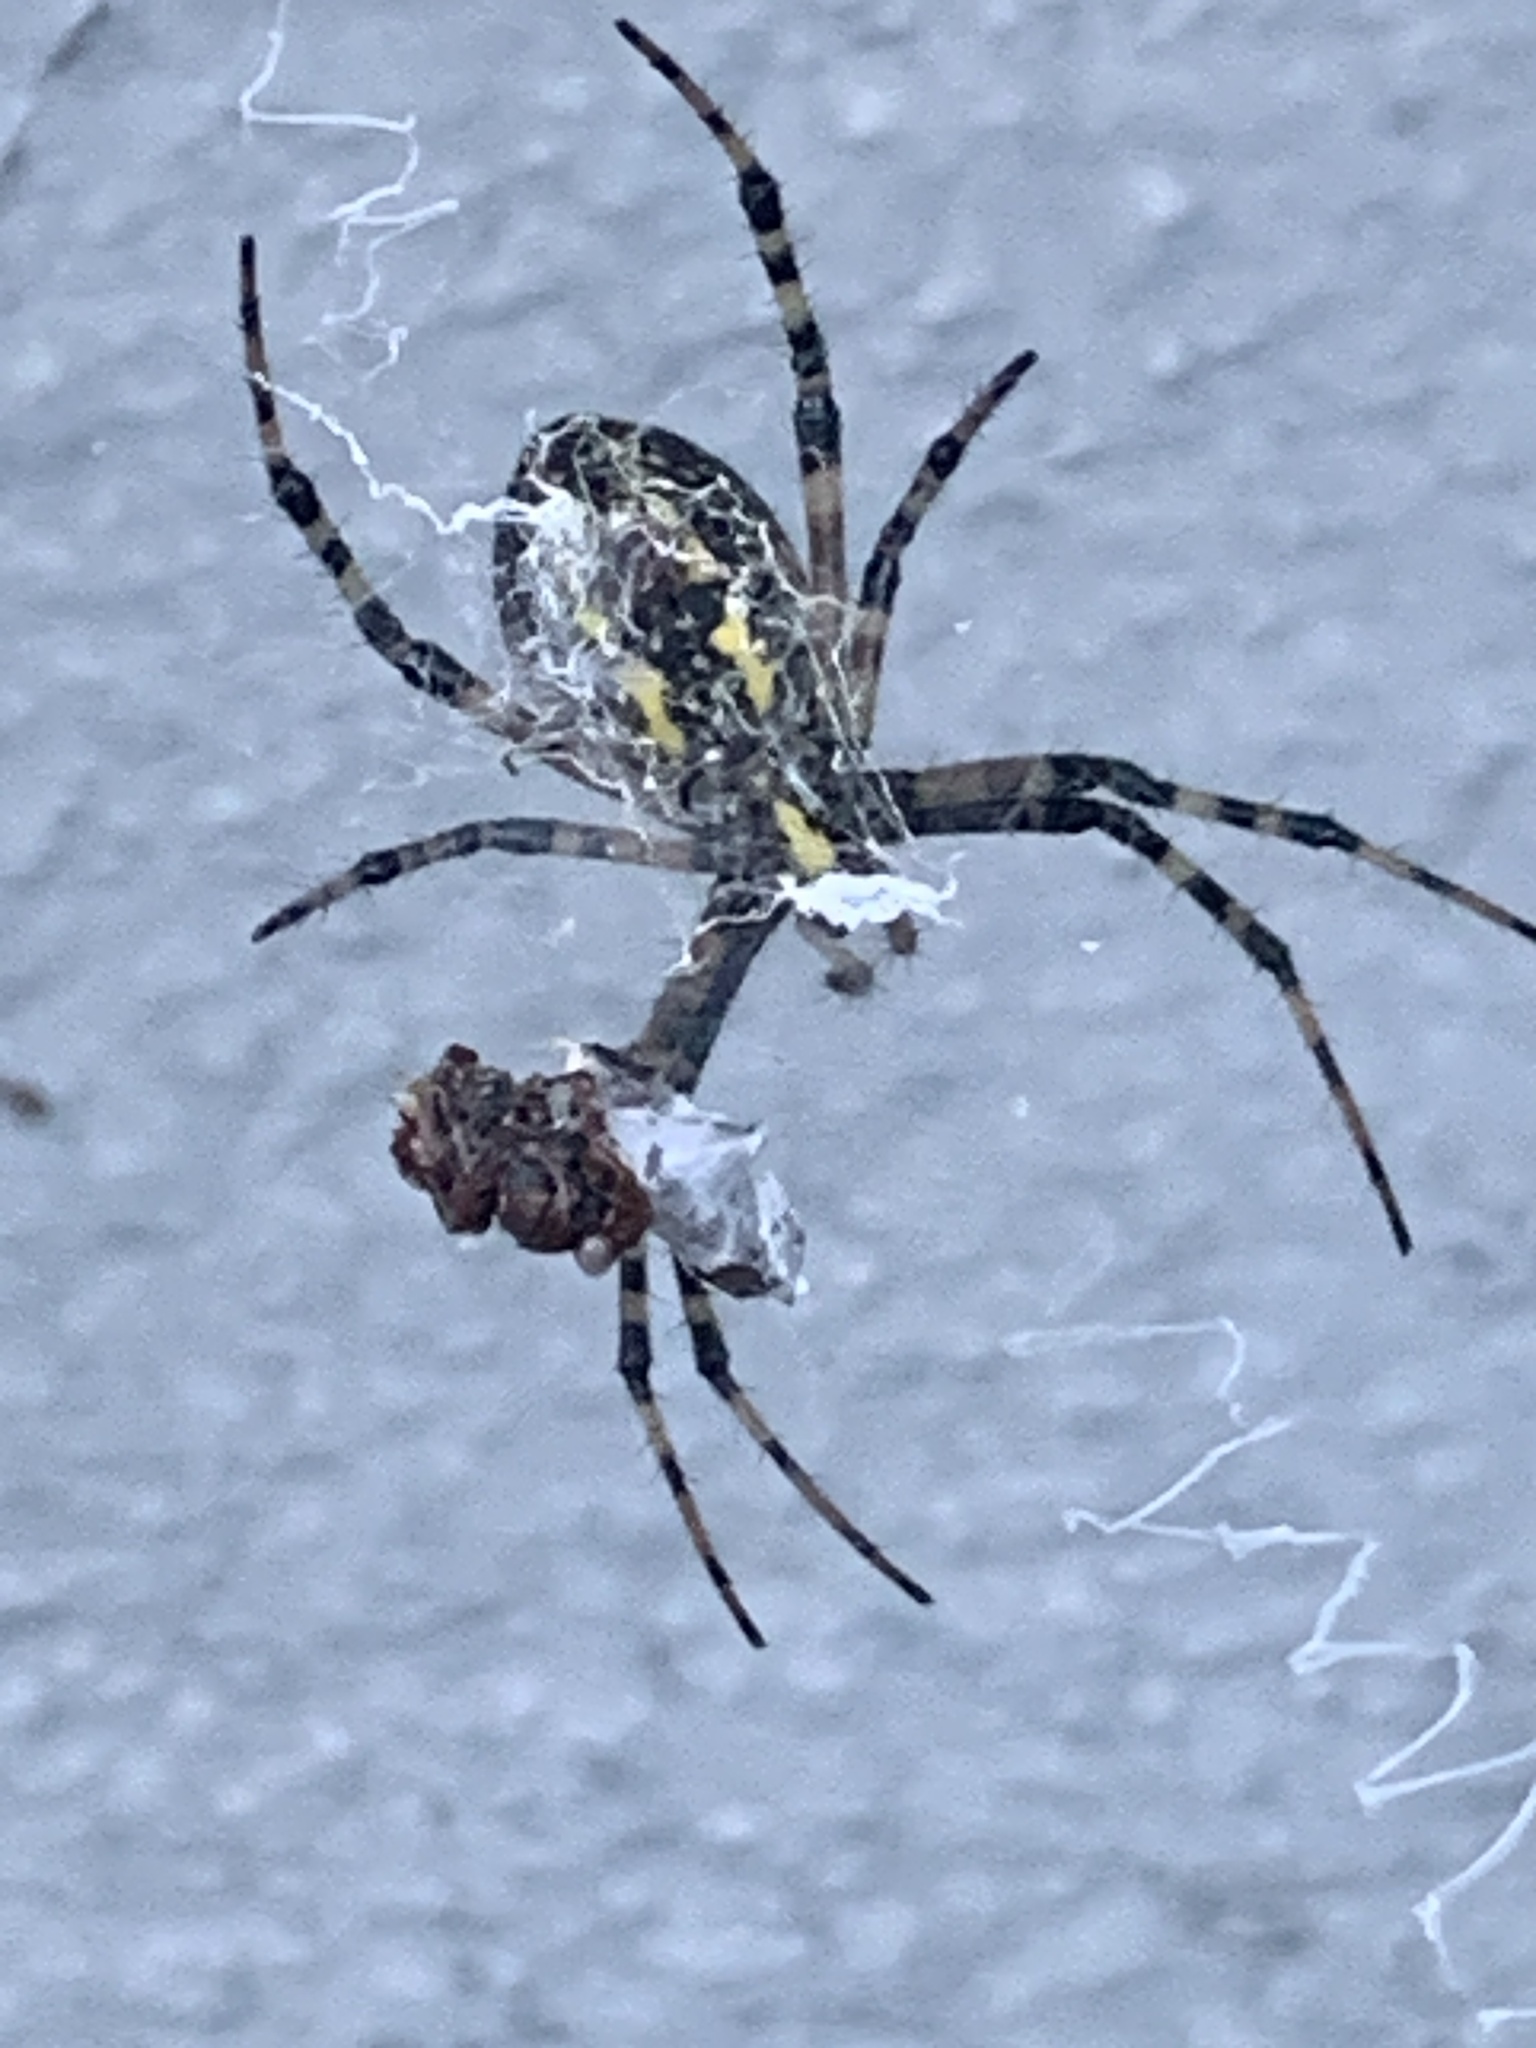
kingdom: Animalia
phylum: Arthropoda
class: Arachnida
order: Araneae
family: Araneidae
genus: Argiope
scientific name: Argiope aurantia
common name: Orb weavers
